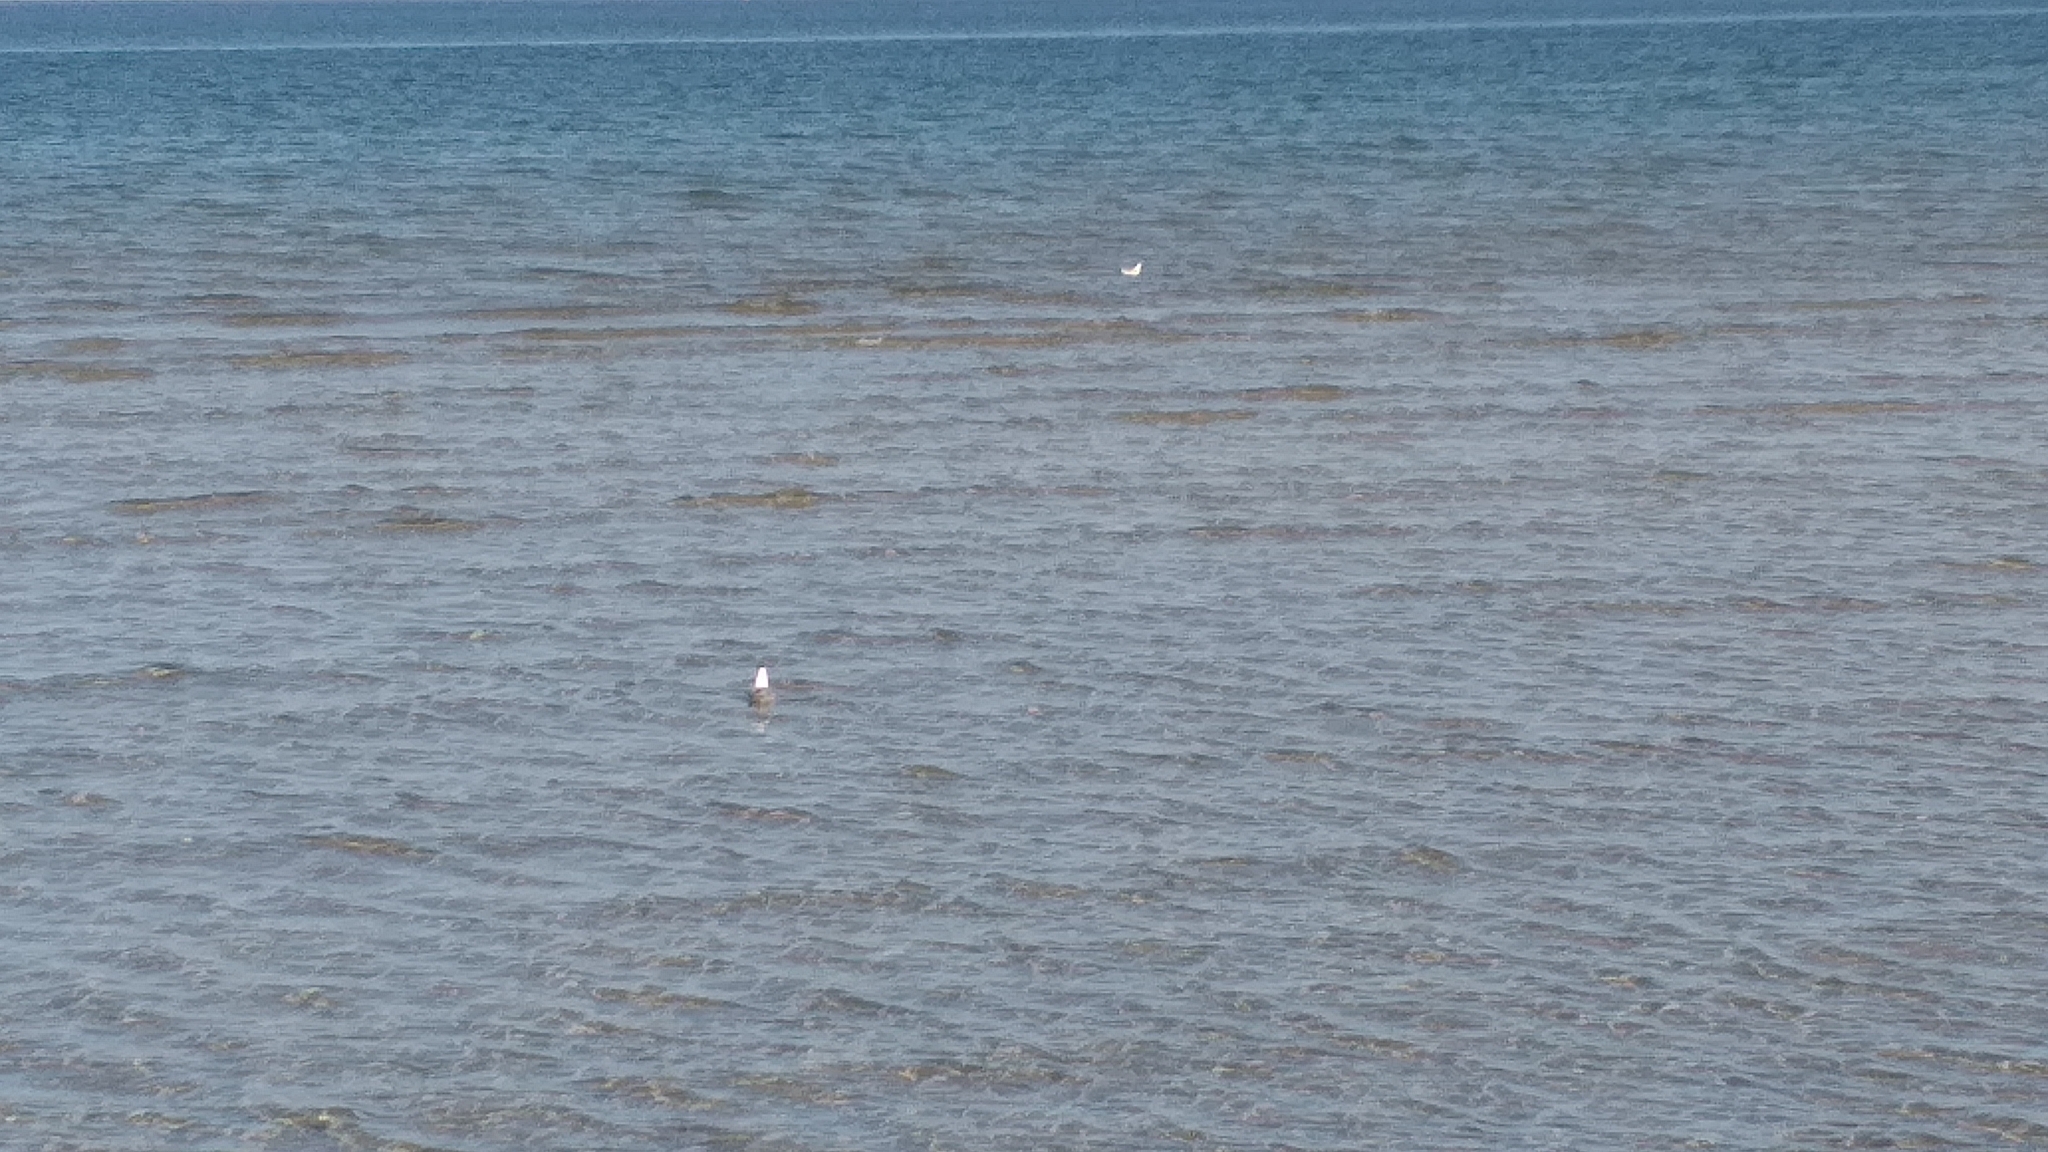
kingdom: Animalia
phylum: Chordata
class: Aves
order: Charadriiformes
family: Laridae
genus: Chroicocephalus
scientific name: Chroicocephalus ridibundus
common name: Black-headed gull
